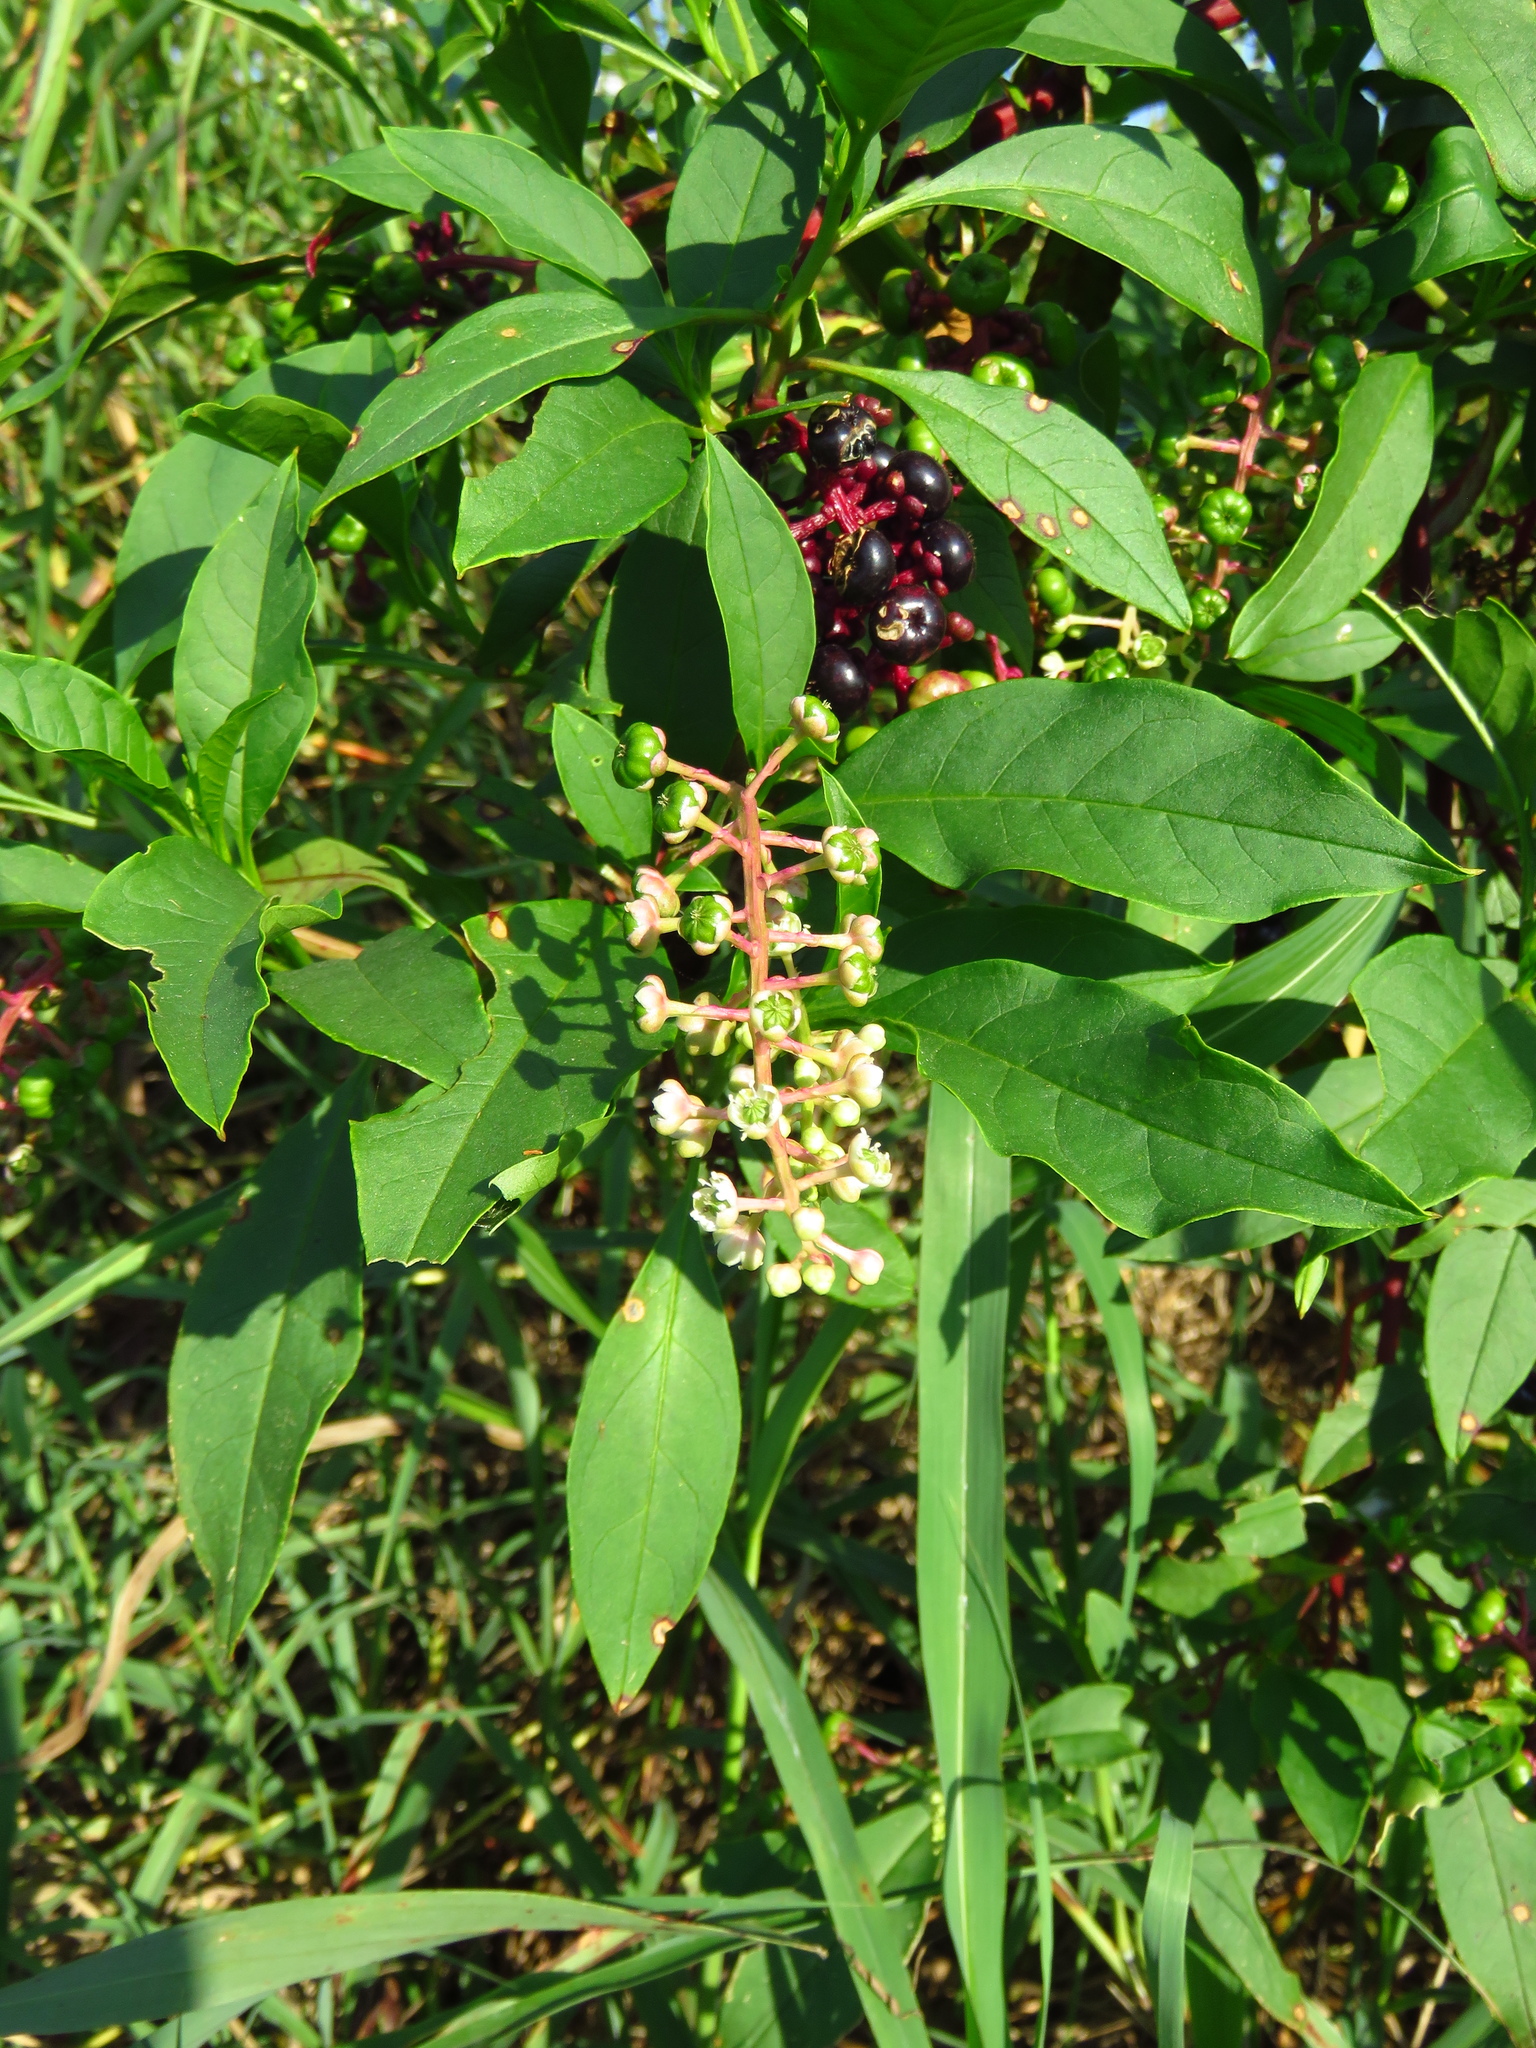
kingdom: Plantae
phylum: Tracheophyta
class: Magnoliopsida
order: Caryophyllales
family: Phytolaccaceae
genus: Phytolacca
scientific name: Phytolacca americana
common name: American pokeweed
